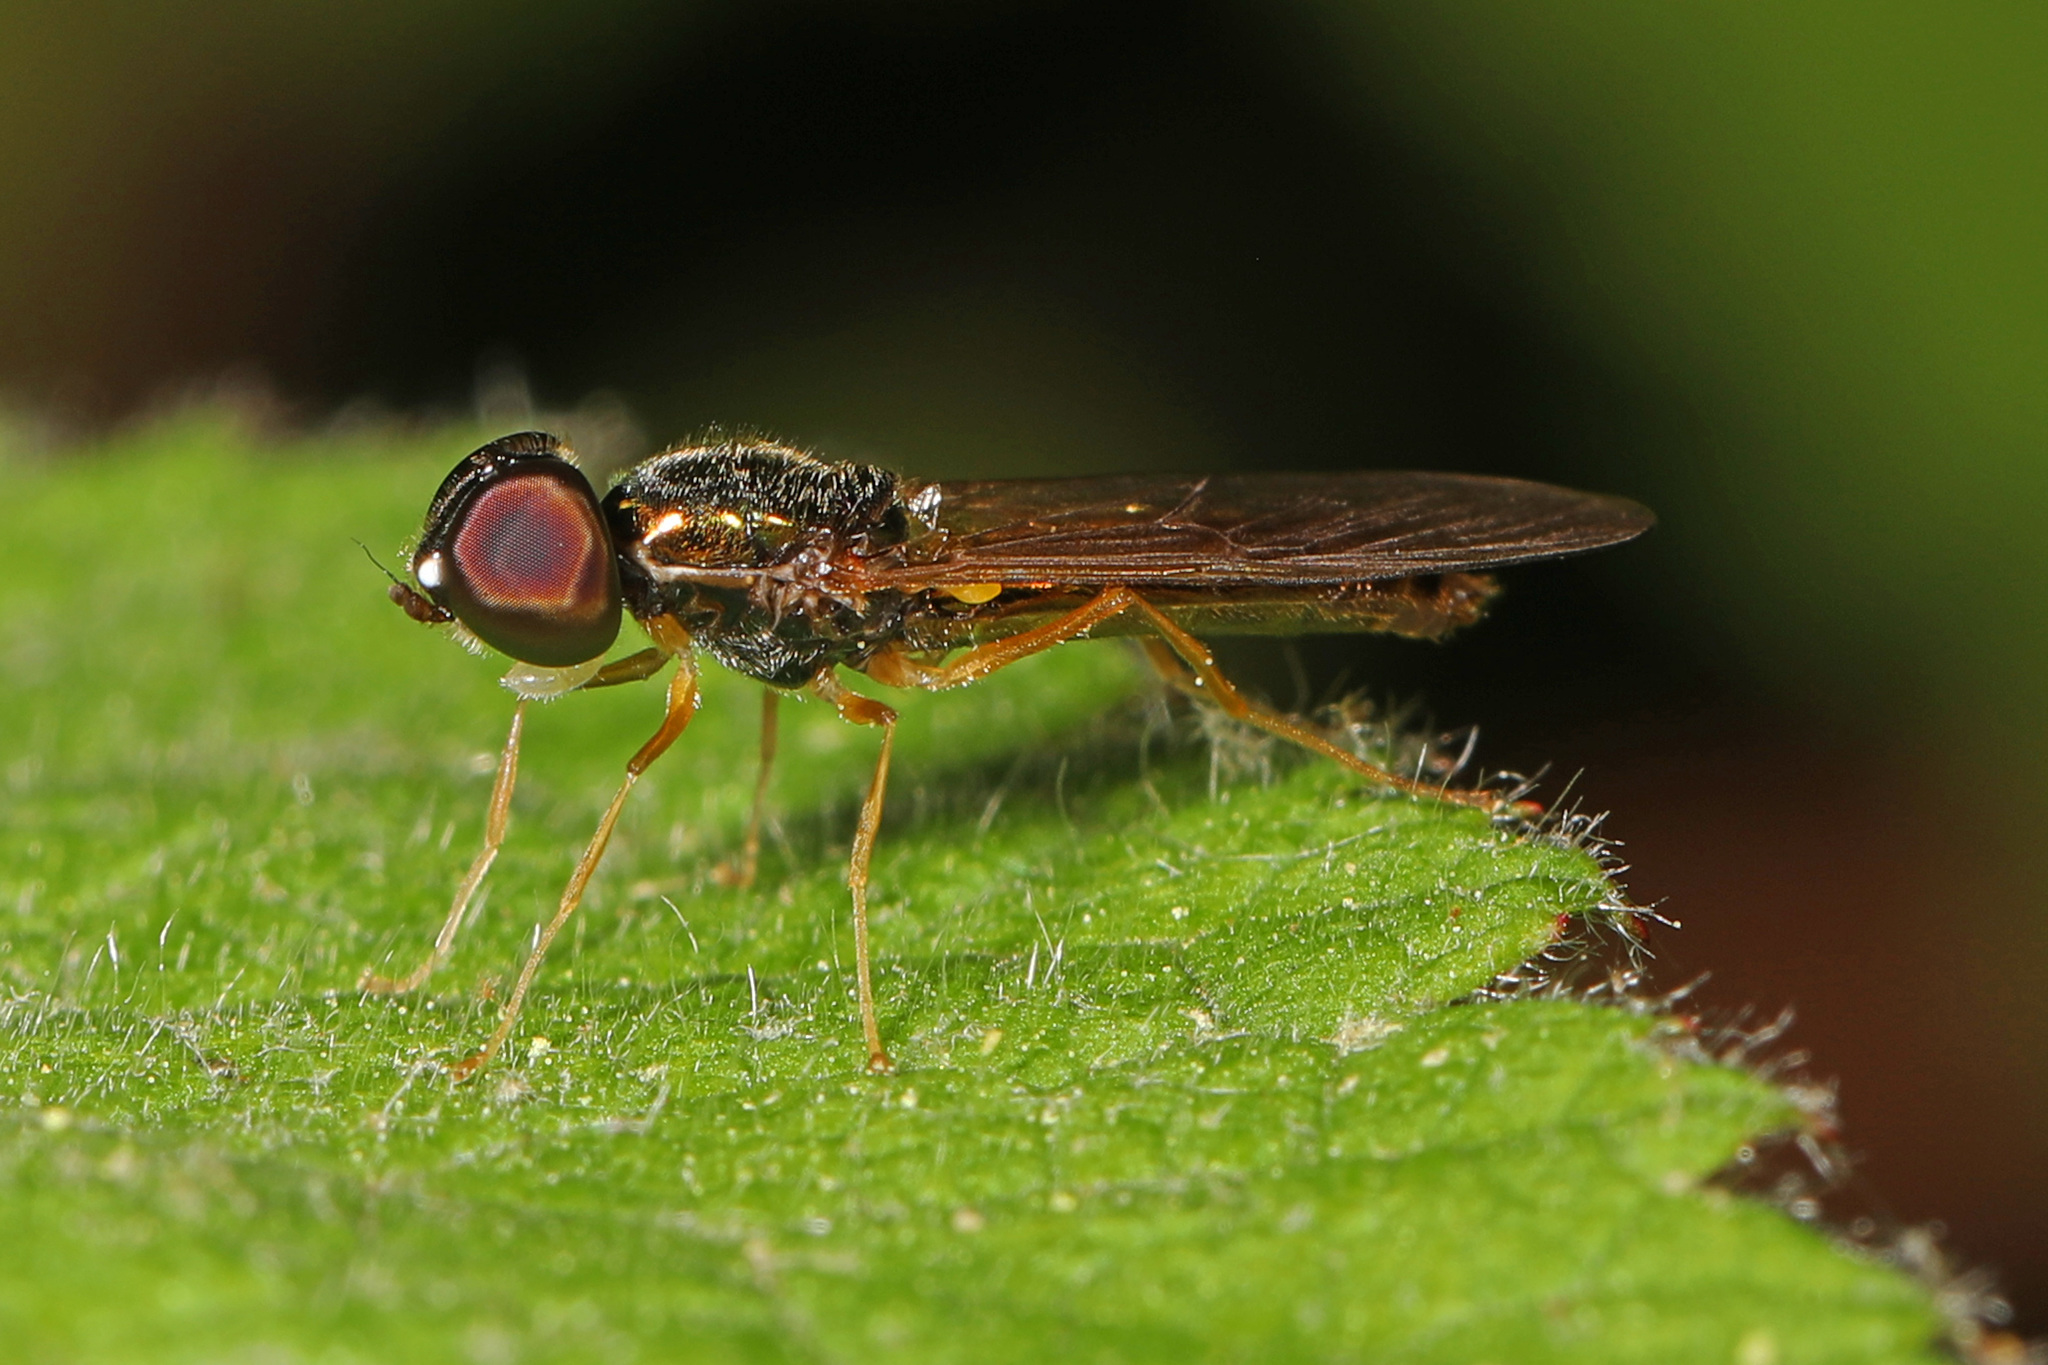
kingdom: Animalia
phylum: Arthropoda
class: Insecta
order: Diptera
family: Stratiomyidae
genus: Sargus
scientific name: Sargus decorus
